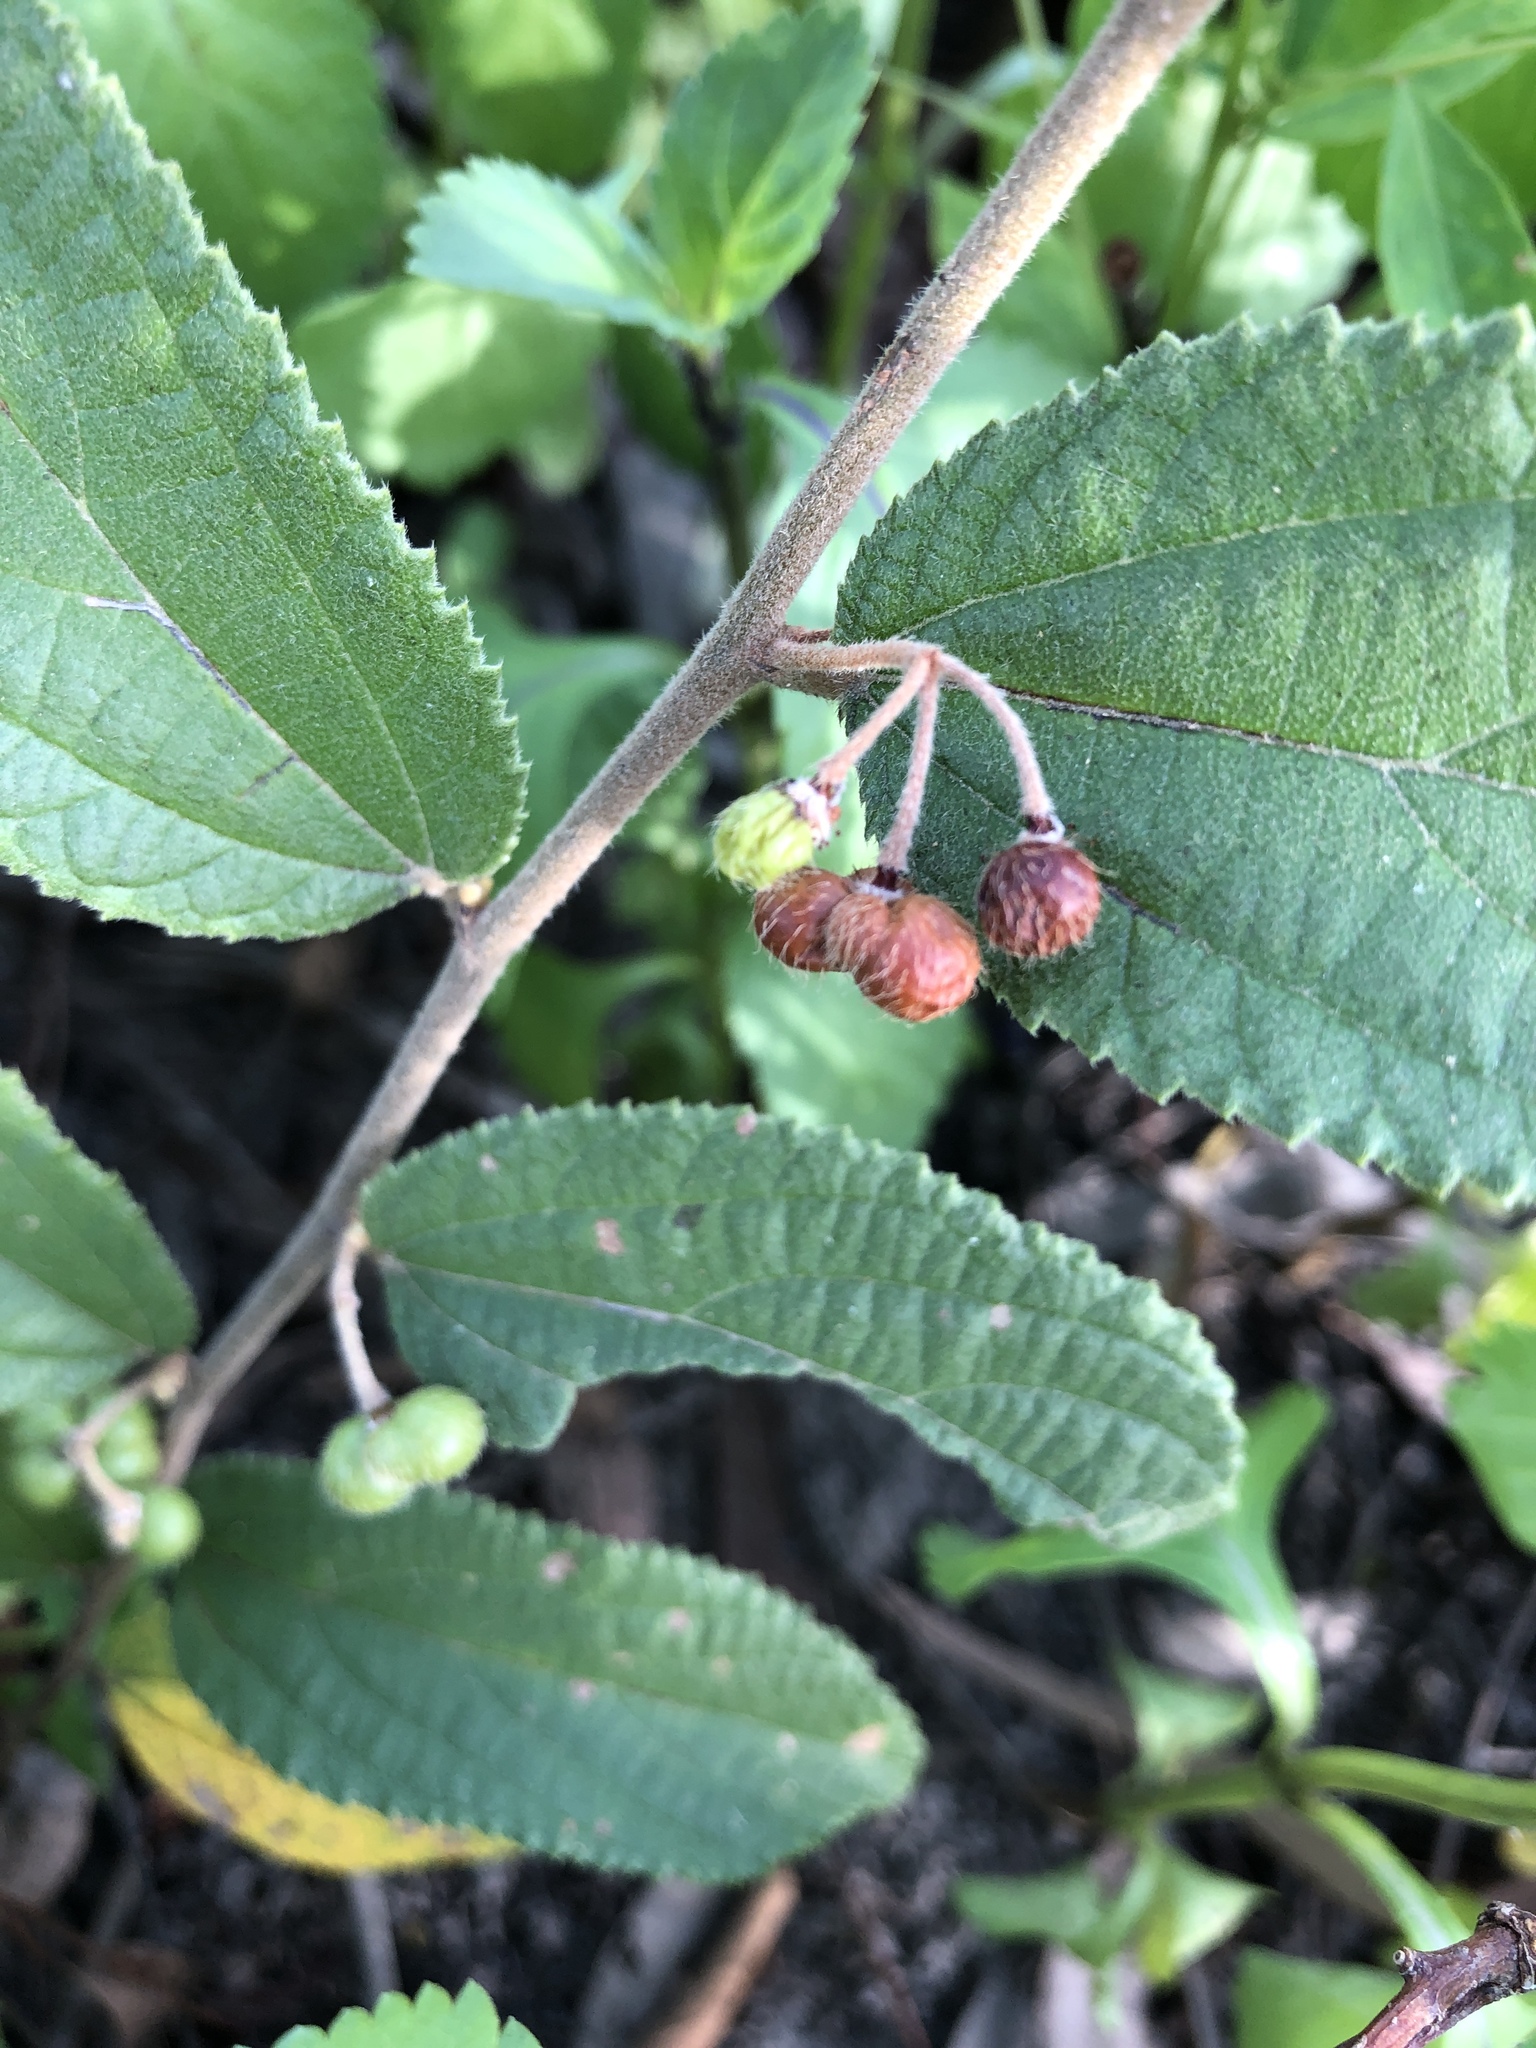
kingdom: Plantae
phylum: Tracheophyta
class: Magnoliopsida
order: Malvales
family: Malvaceae
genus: Grewia
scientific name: Grewia savannicola
